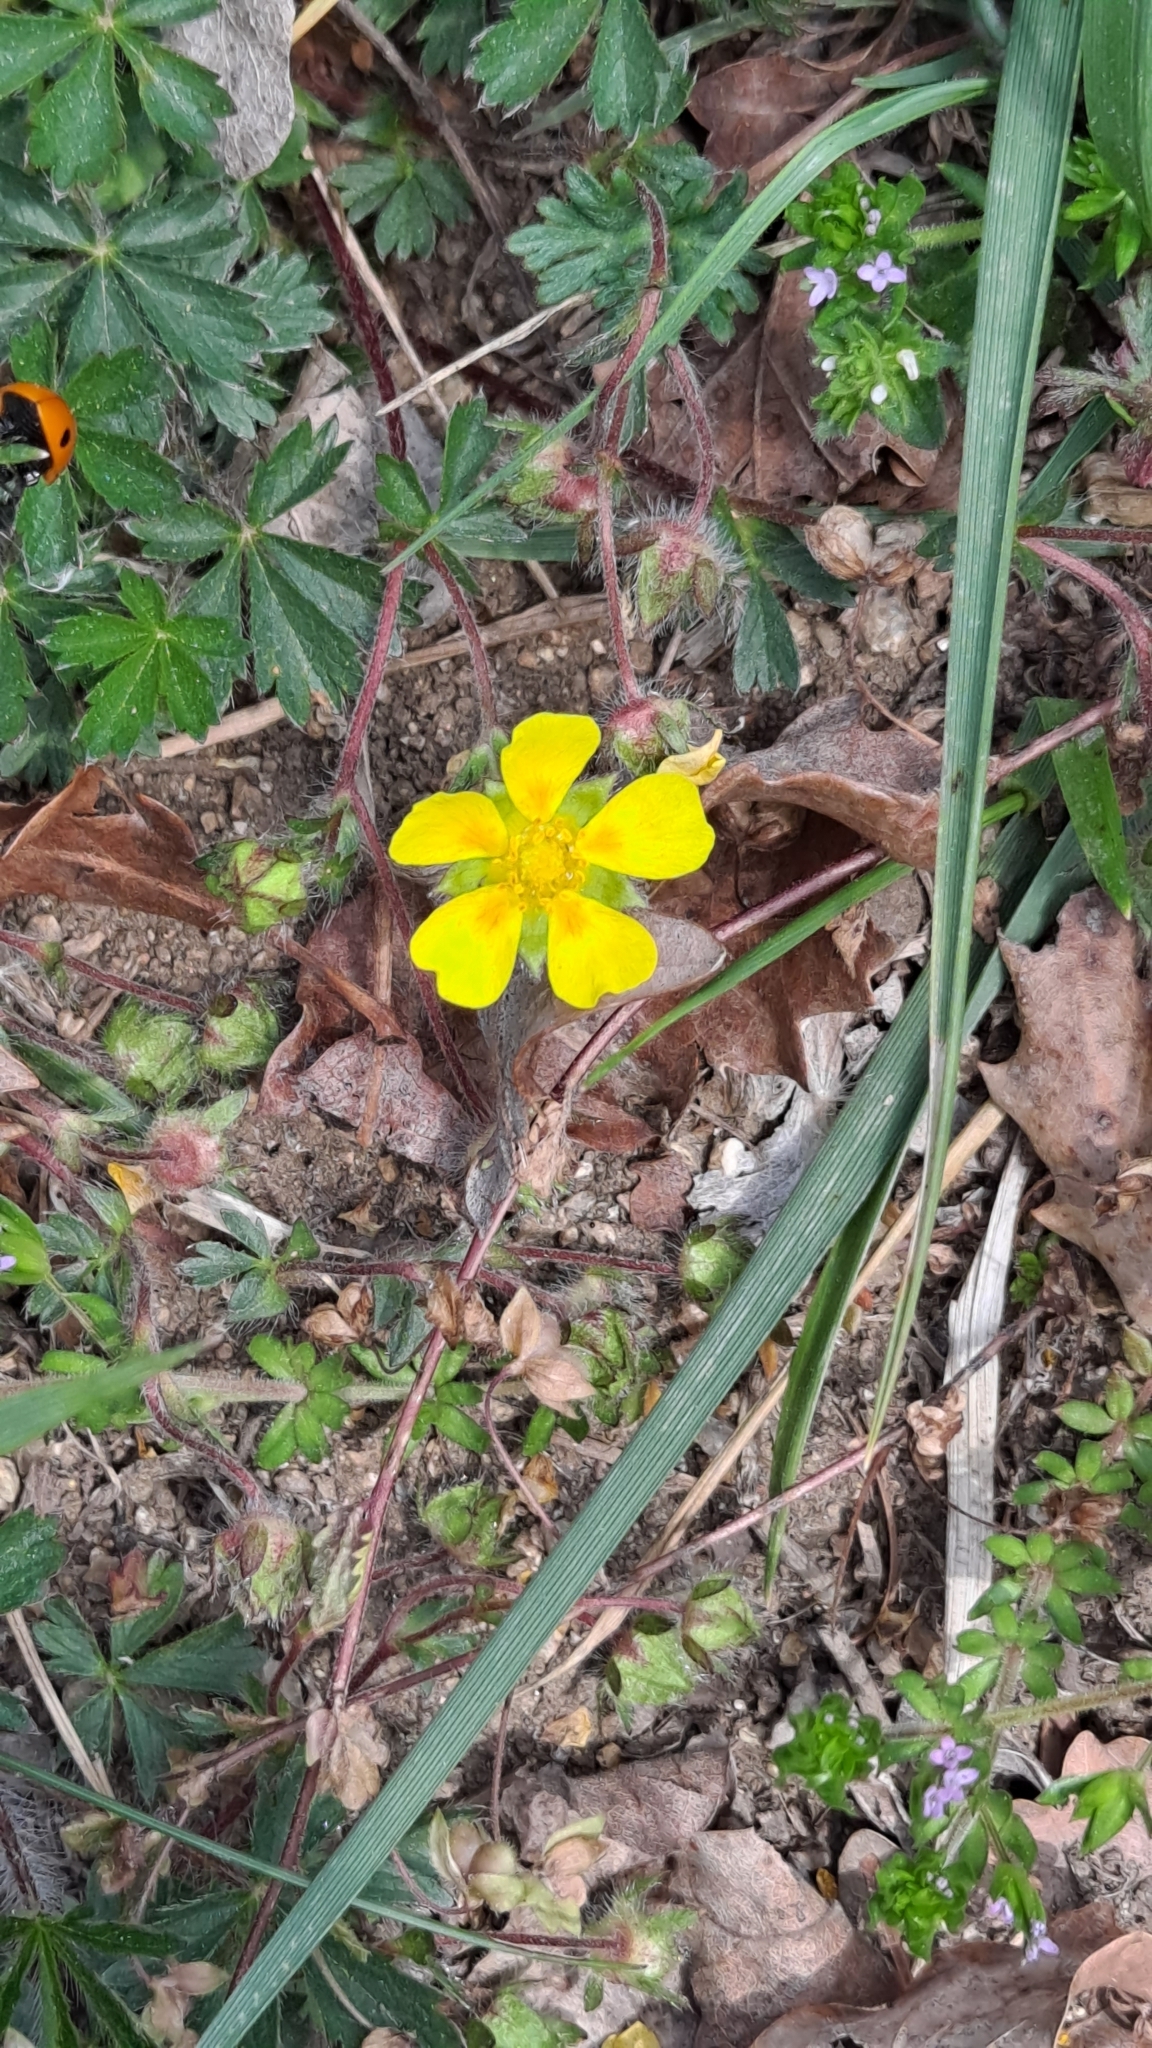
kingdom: Plantae
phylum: Tracheophyta
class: Magnoliopsida
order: Rosales
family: Rosaceae
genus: Potentilla
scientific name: Potentilla verna
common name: Spring cinquefoil
